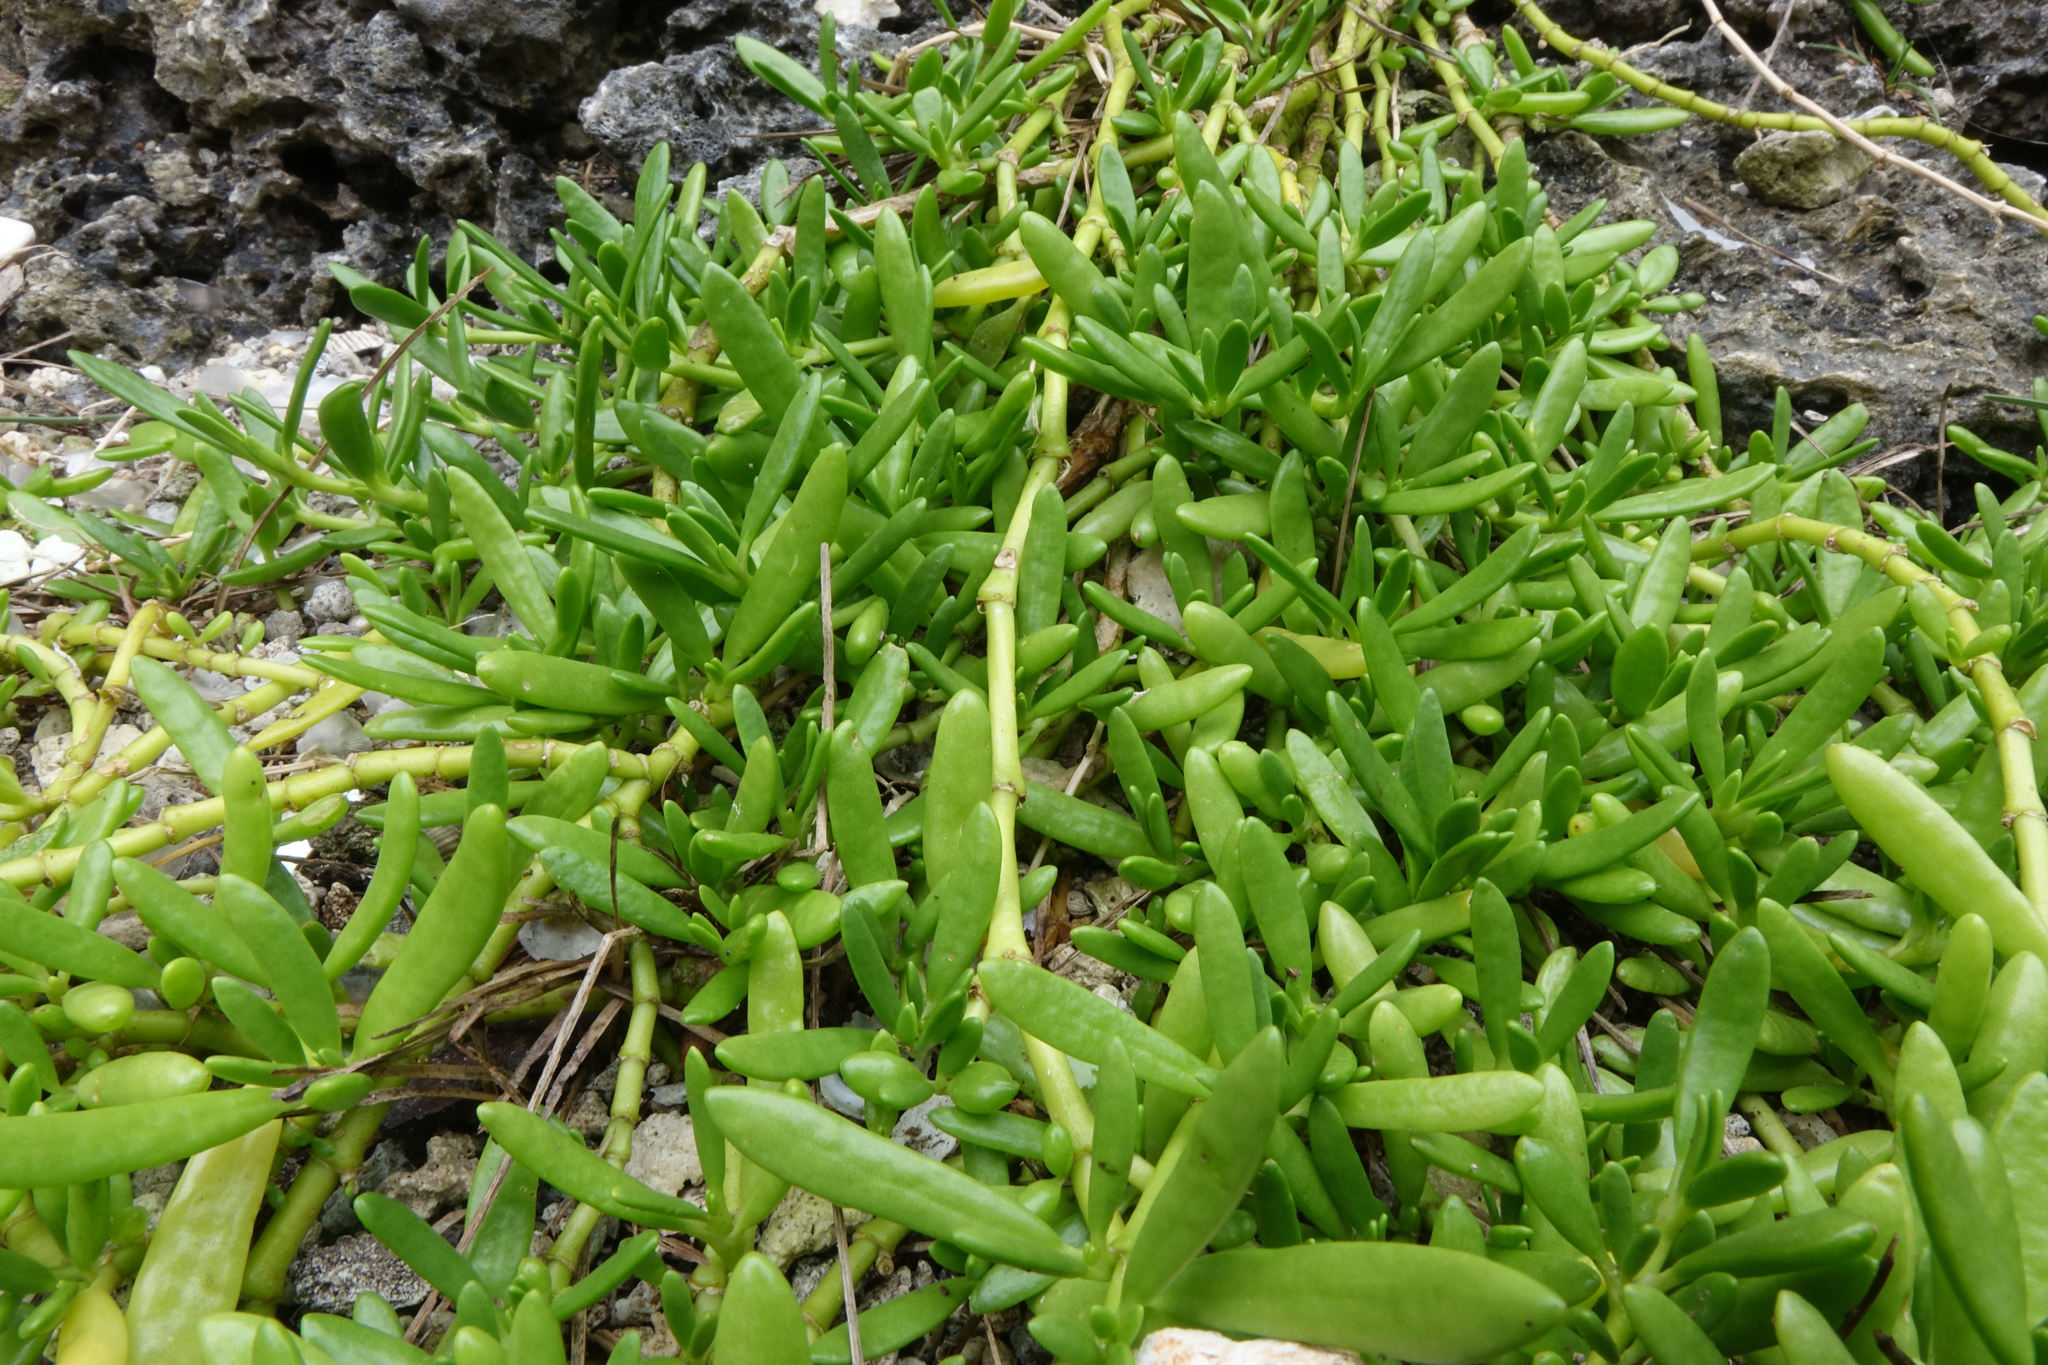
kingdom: Plantae
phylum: Tracheophyta
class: Magnoliopsida
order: Caryophyllales
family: Aizoaceae
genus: Sesuvium
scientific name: Sesuvium portulacastrum
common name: Sea-purslane
